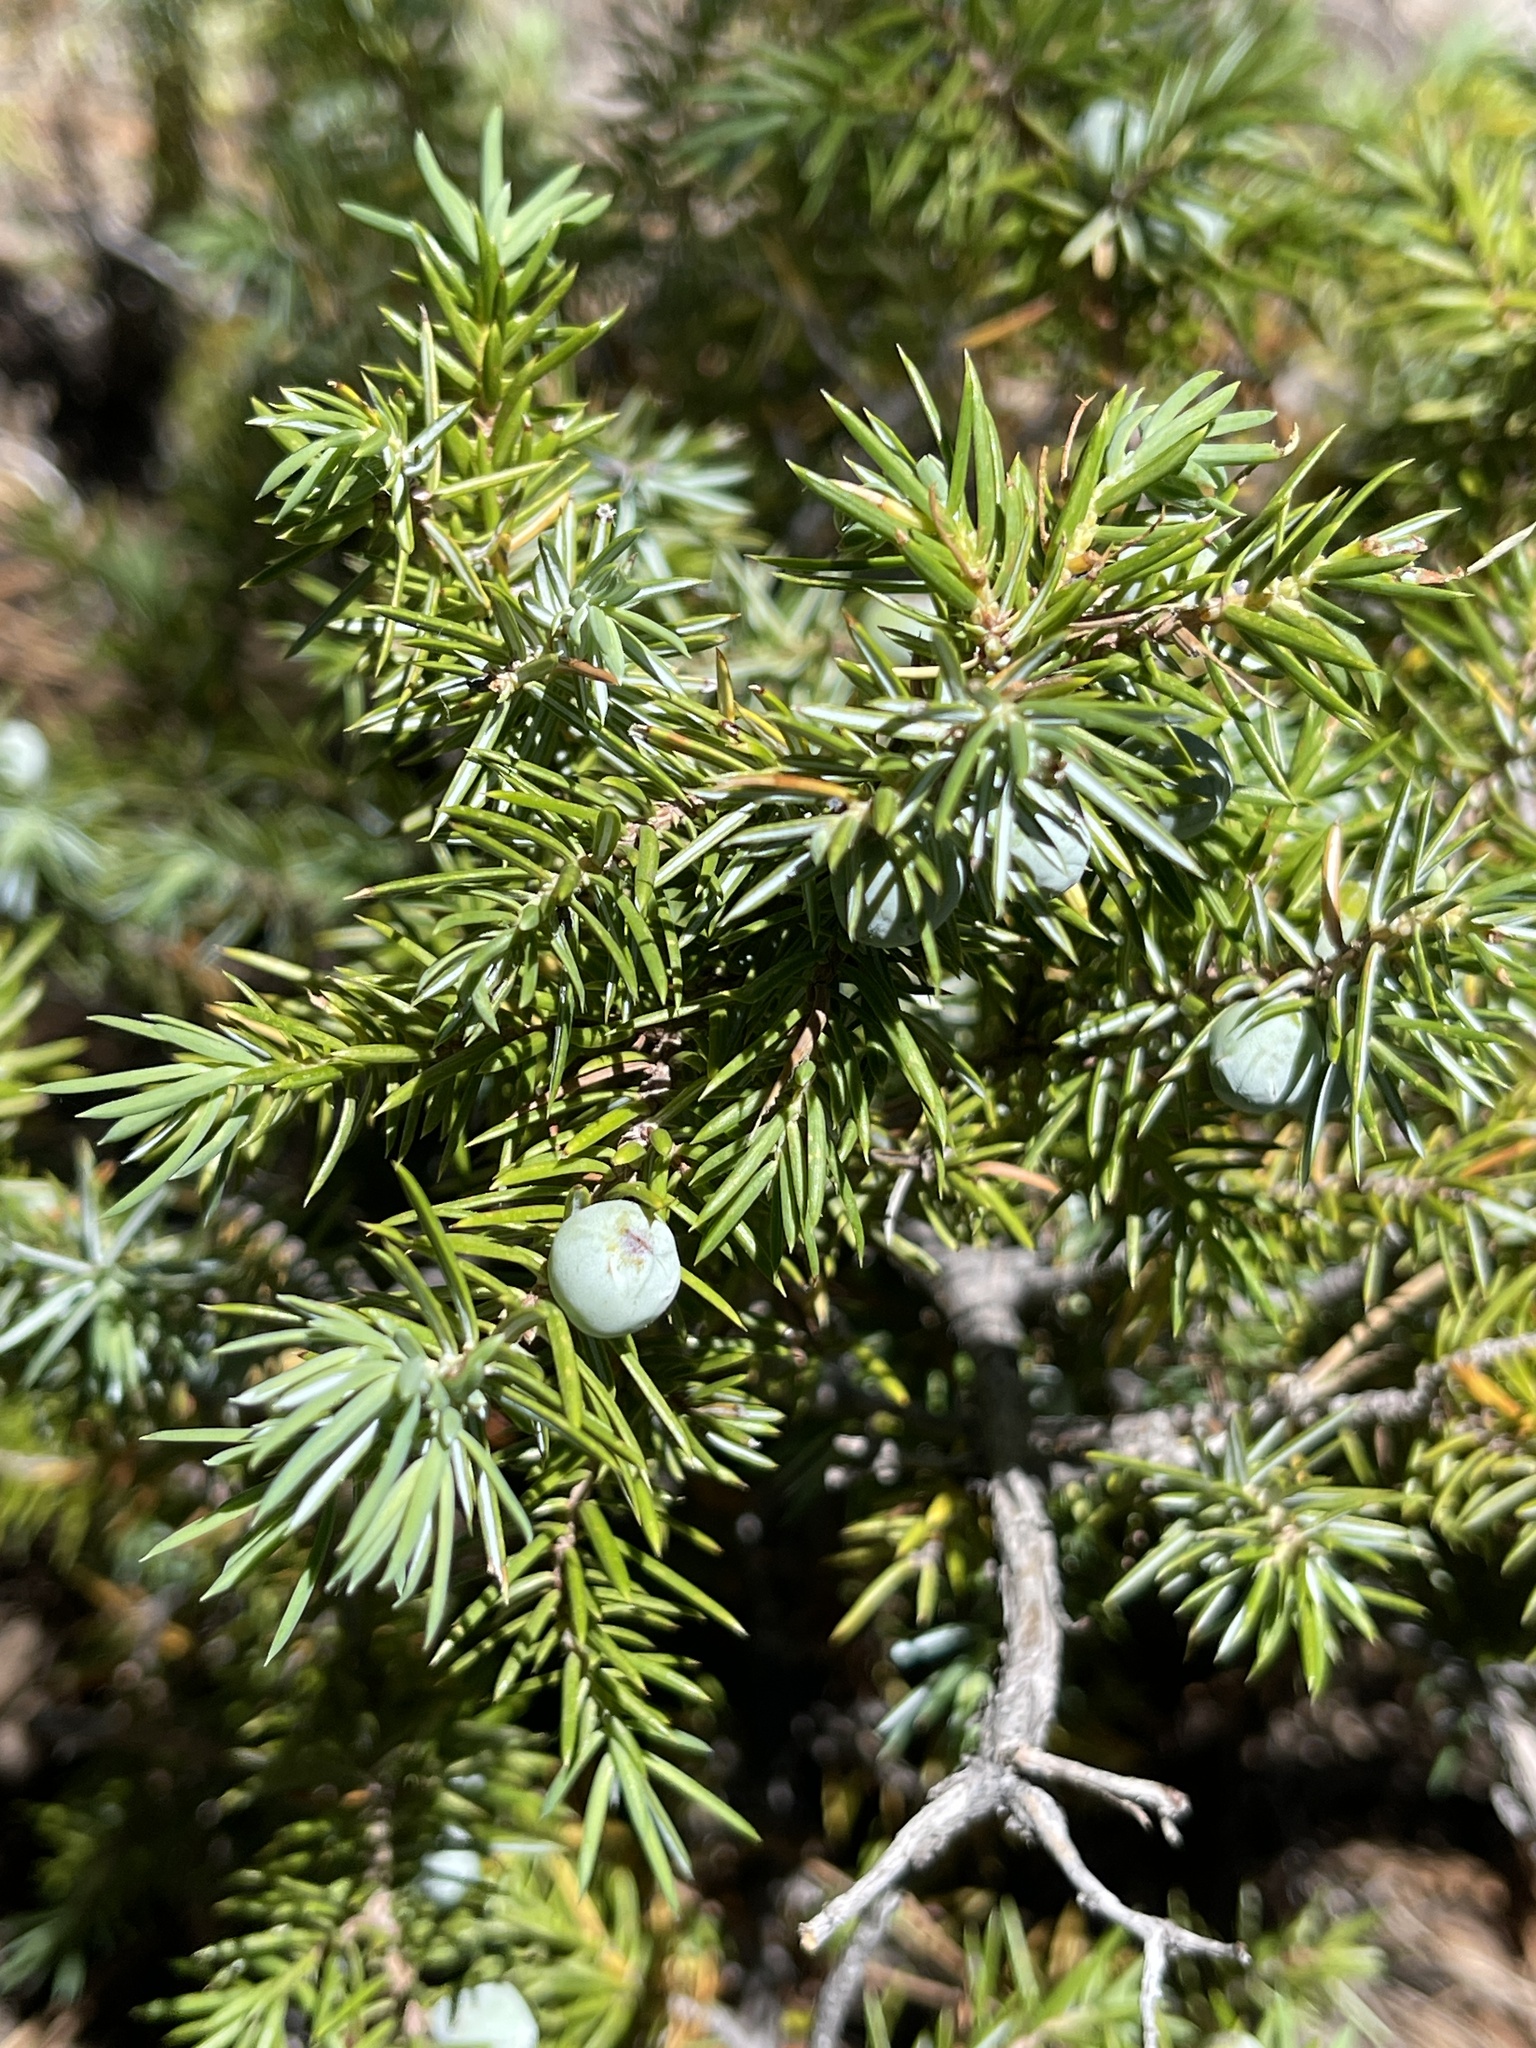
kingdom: Plantae
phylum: Tracheophyta
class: Pinopsida
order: Pinales
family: Cupressaceae
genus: Juniperus
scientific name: Juniperus communis
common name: Common juniper
